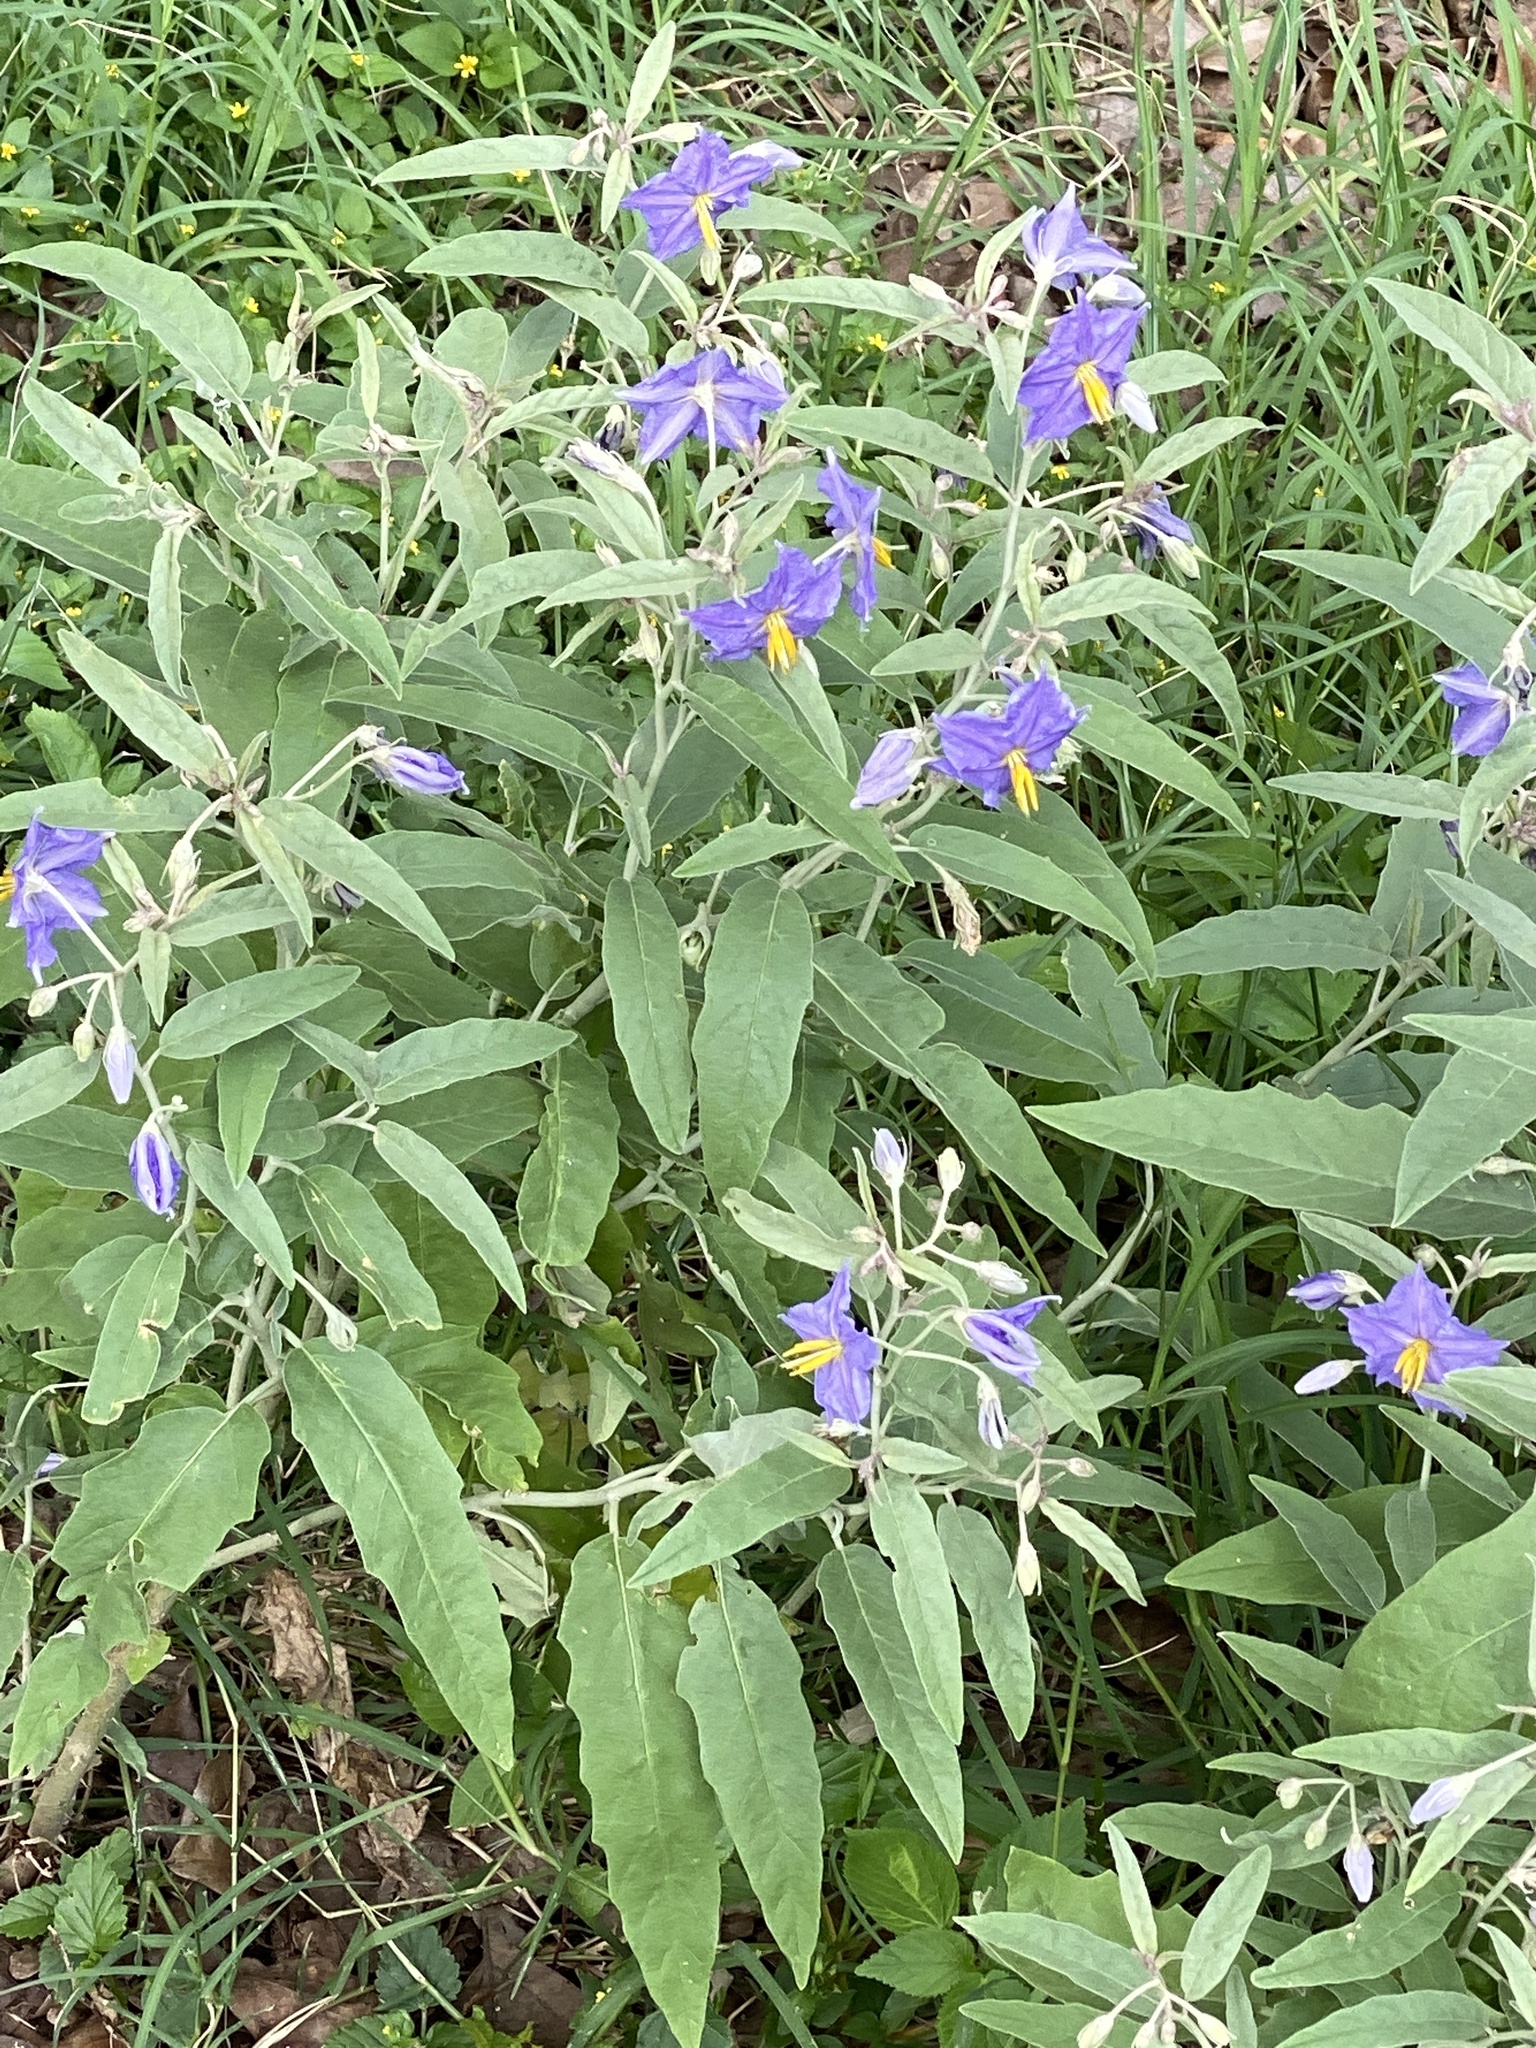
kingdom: Plantae
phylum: Tracheophyta
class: Magnoliopsida
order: Solanales
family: Solanaceae
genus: Solanum
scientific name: Solanum elaeagnifolium
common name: Silverleaf nightshade
